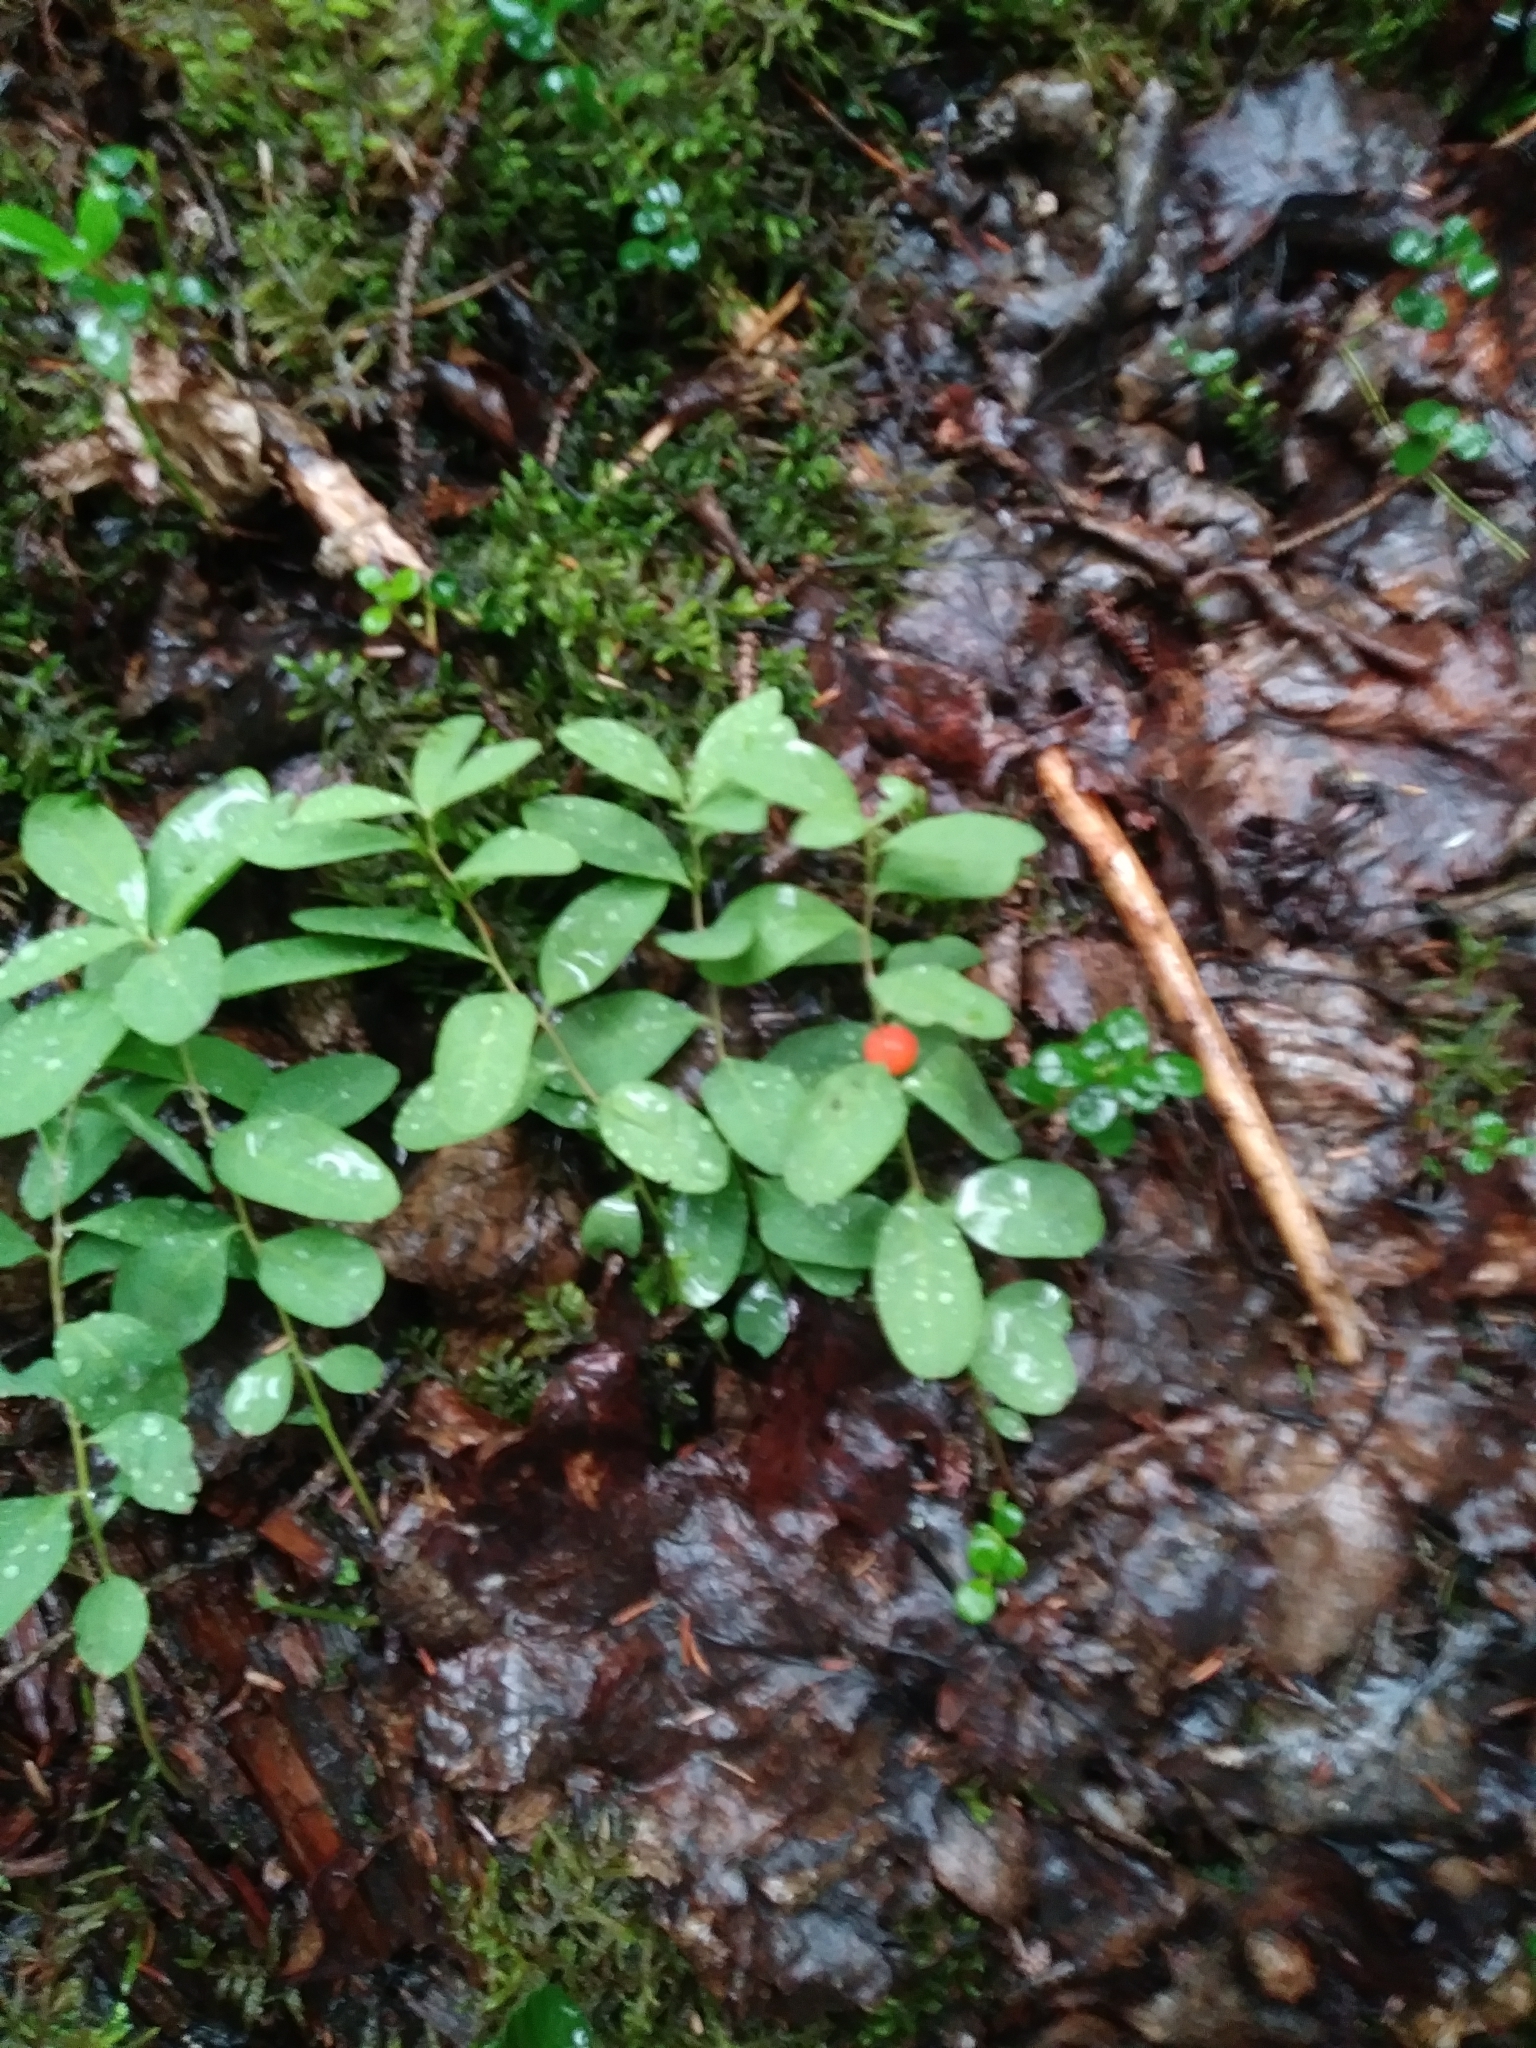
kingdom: Plantae
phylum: Tracheophyta
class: Magnoliopsida
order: Santalales
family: Comandraceae
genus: Geocaulon
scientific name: Geocaulon lividum
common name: Earthberry
